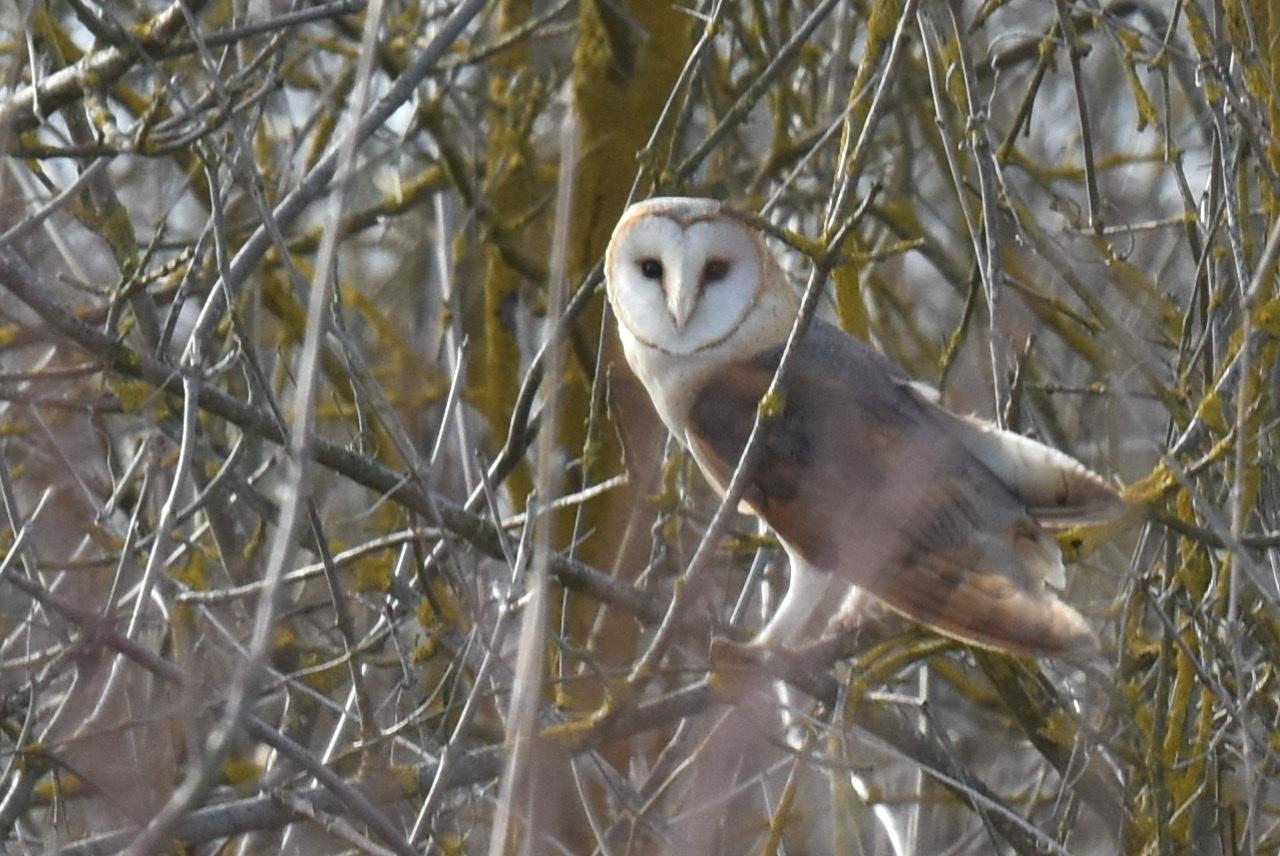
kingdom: Animalia
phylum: Chordata
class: Aves
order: Strigiformes
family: Tytonidae
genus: Tyto
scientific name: Tyto alba
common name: Barn owl
